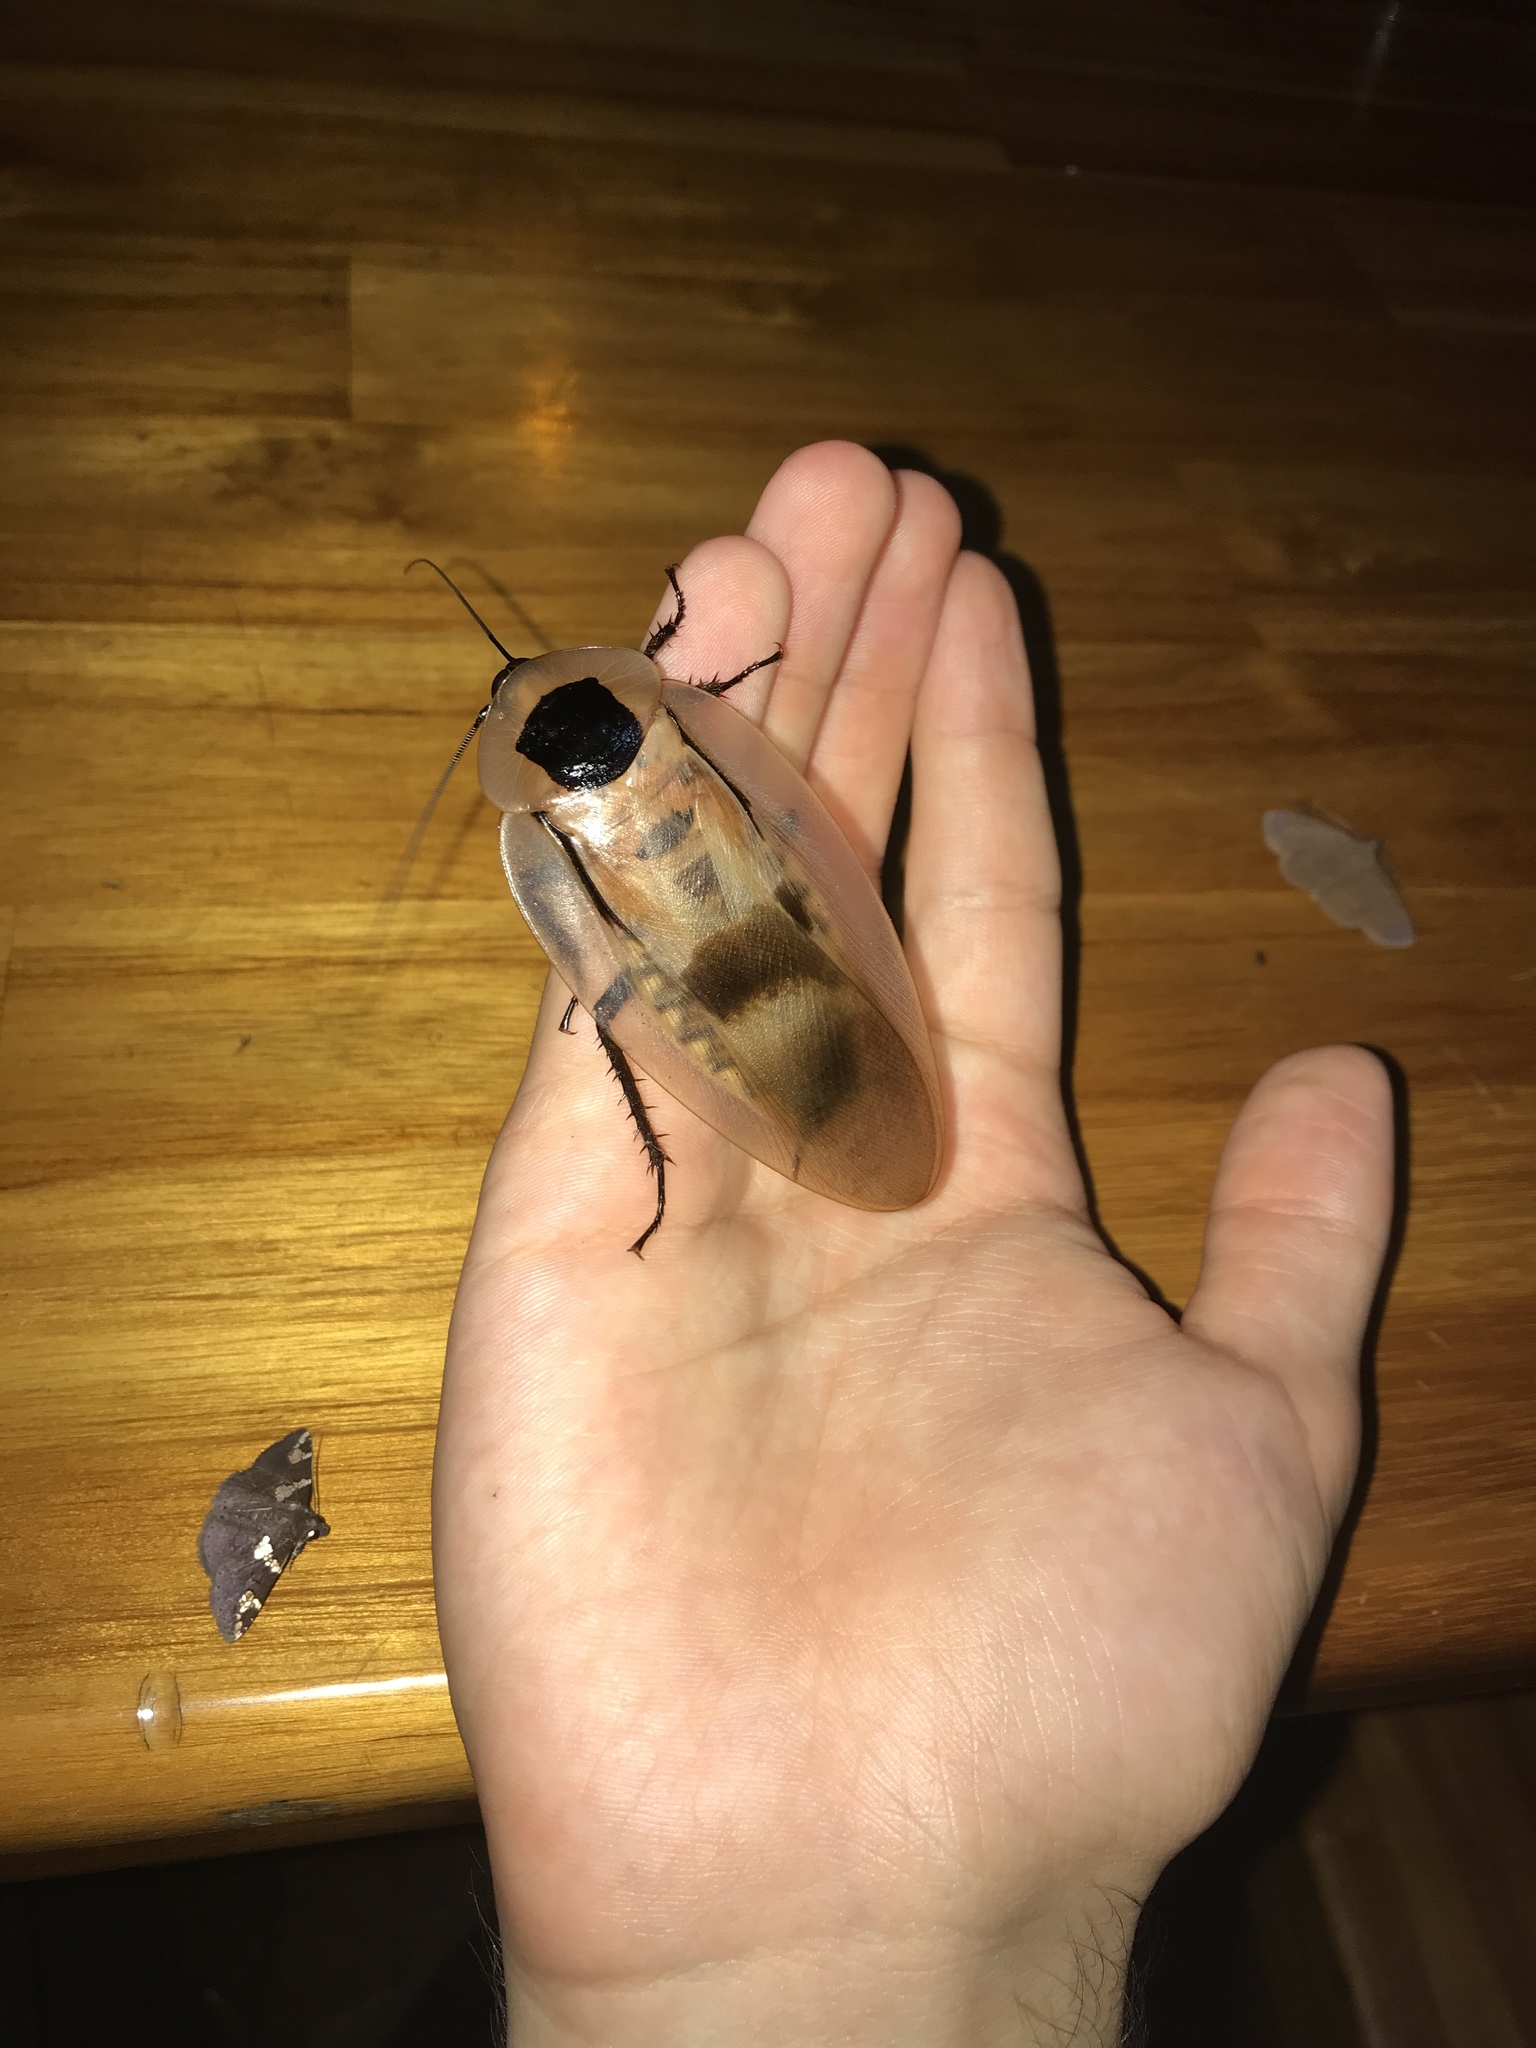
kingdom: Animalia
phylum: Arthropoda
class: Insecta
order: Blattodea
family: Blaberidae
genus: Blaberus
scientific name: Blaberus giganteus
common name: Giant cave cockroach
